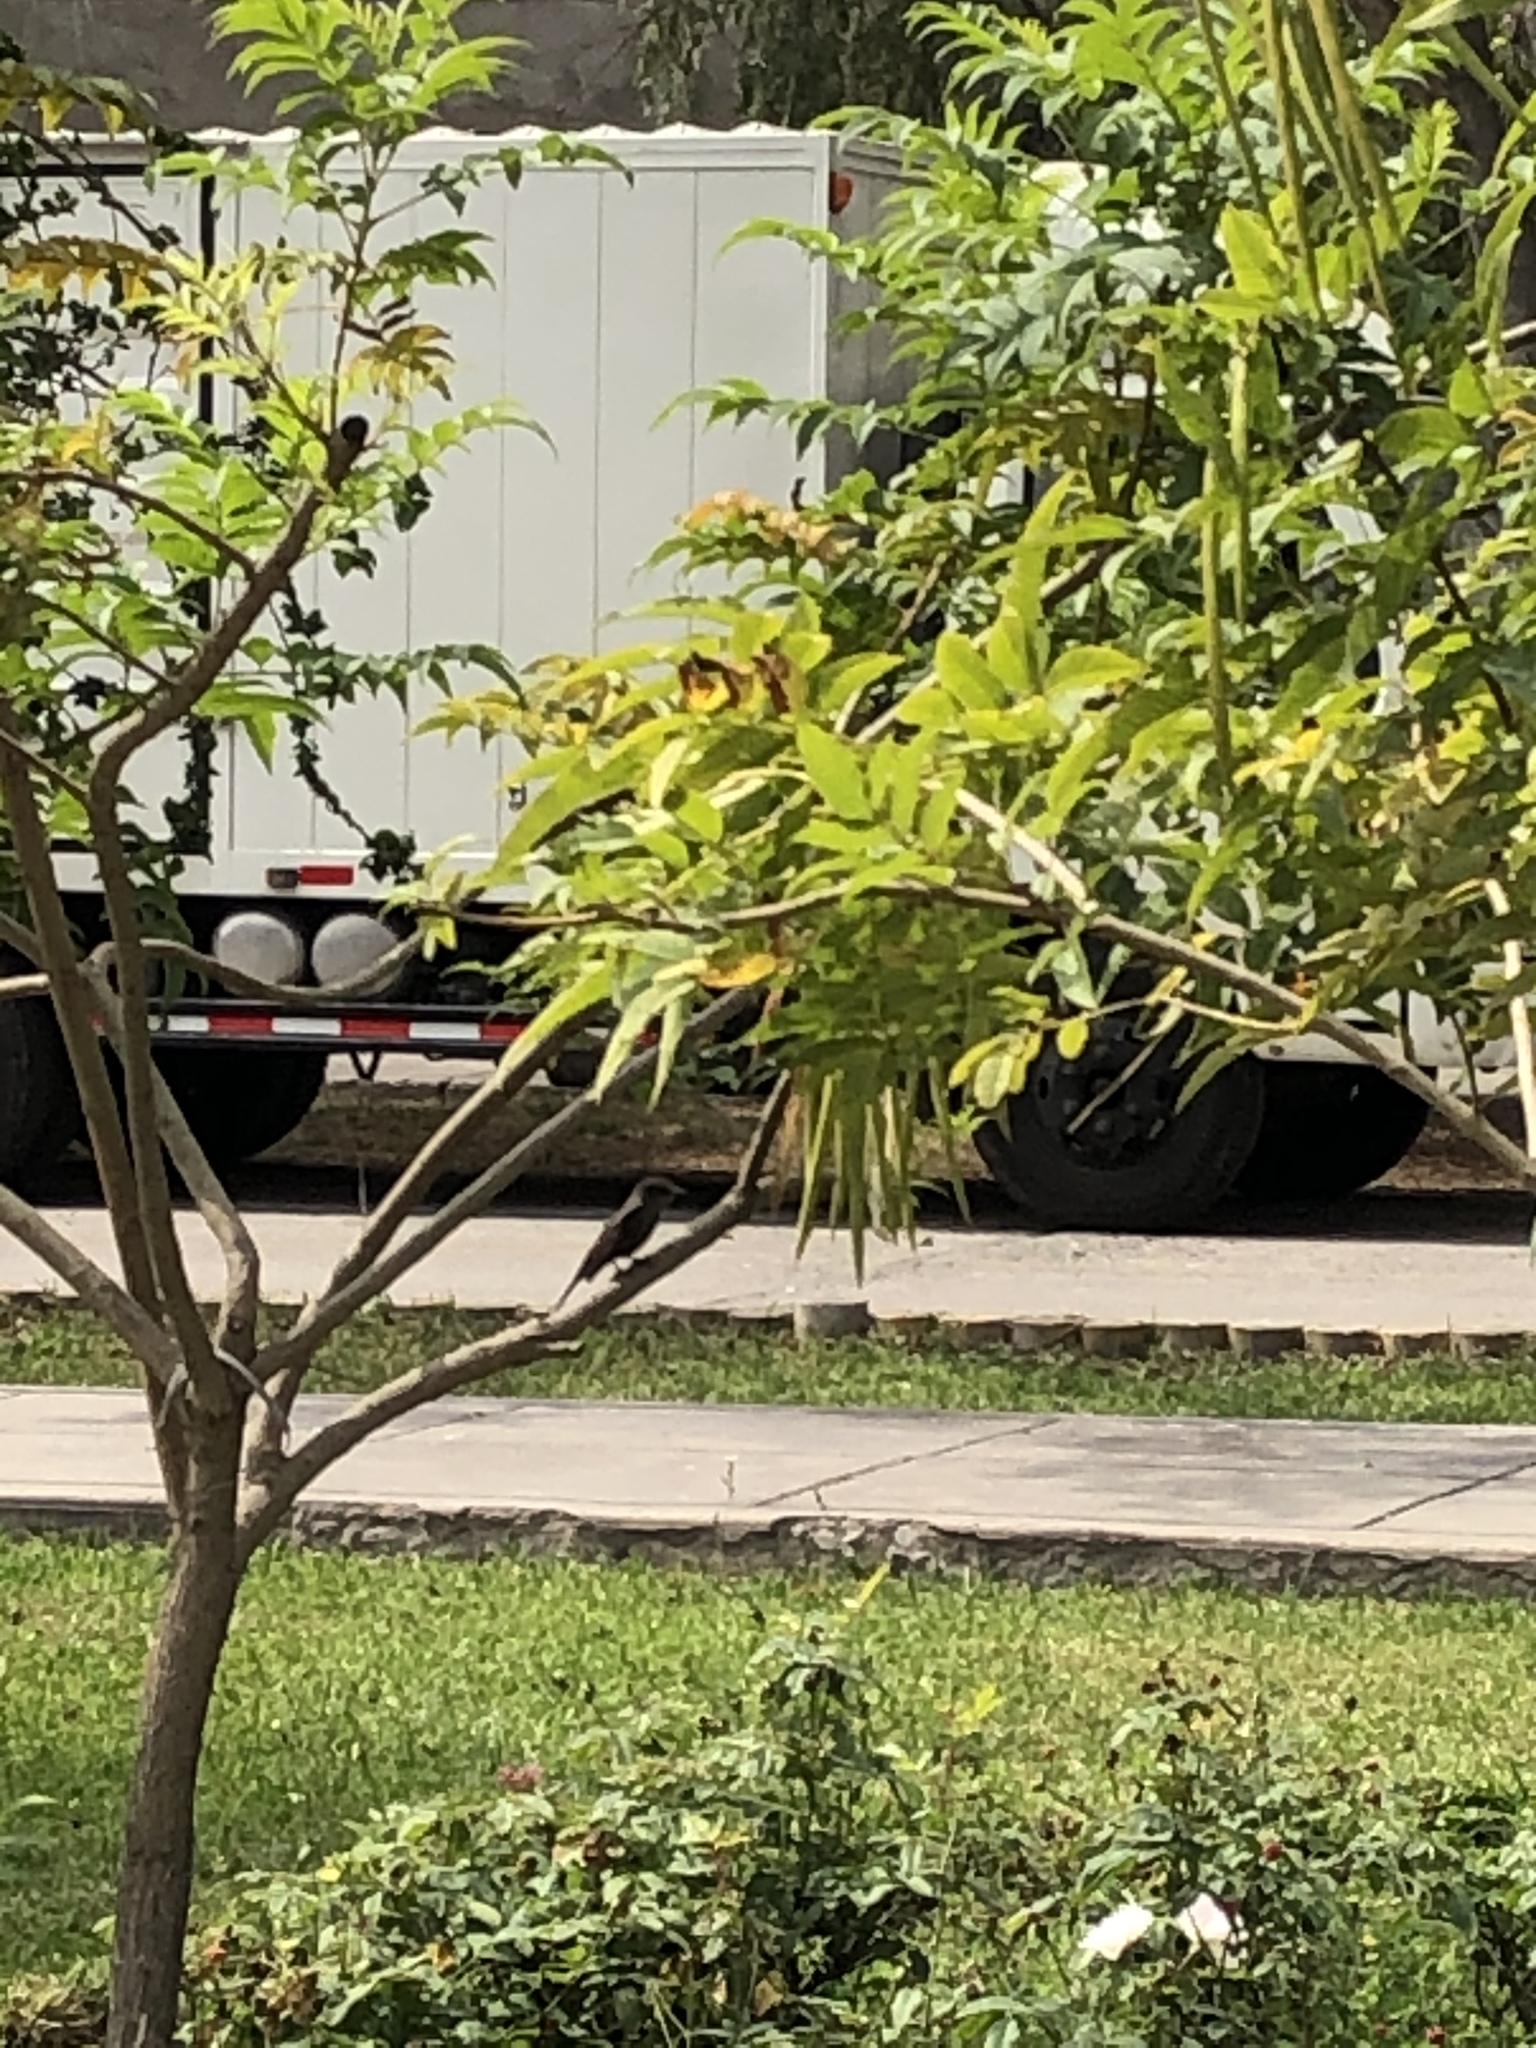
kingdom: Animalia
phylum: Chordata
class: Aves
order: Passeriformes
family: Tyrannidae
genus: Pyrocephalus
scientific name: Pyrocephalus rubinus
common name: Vermilion flycatcher
